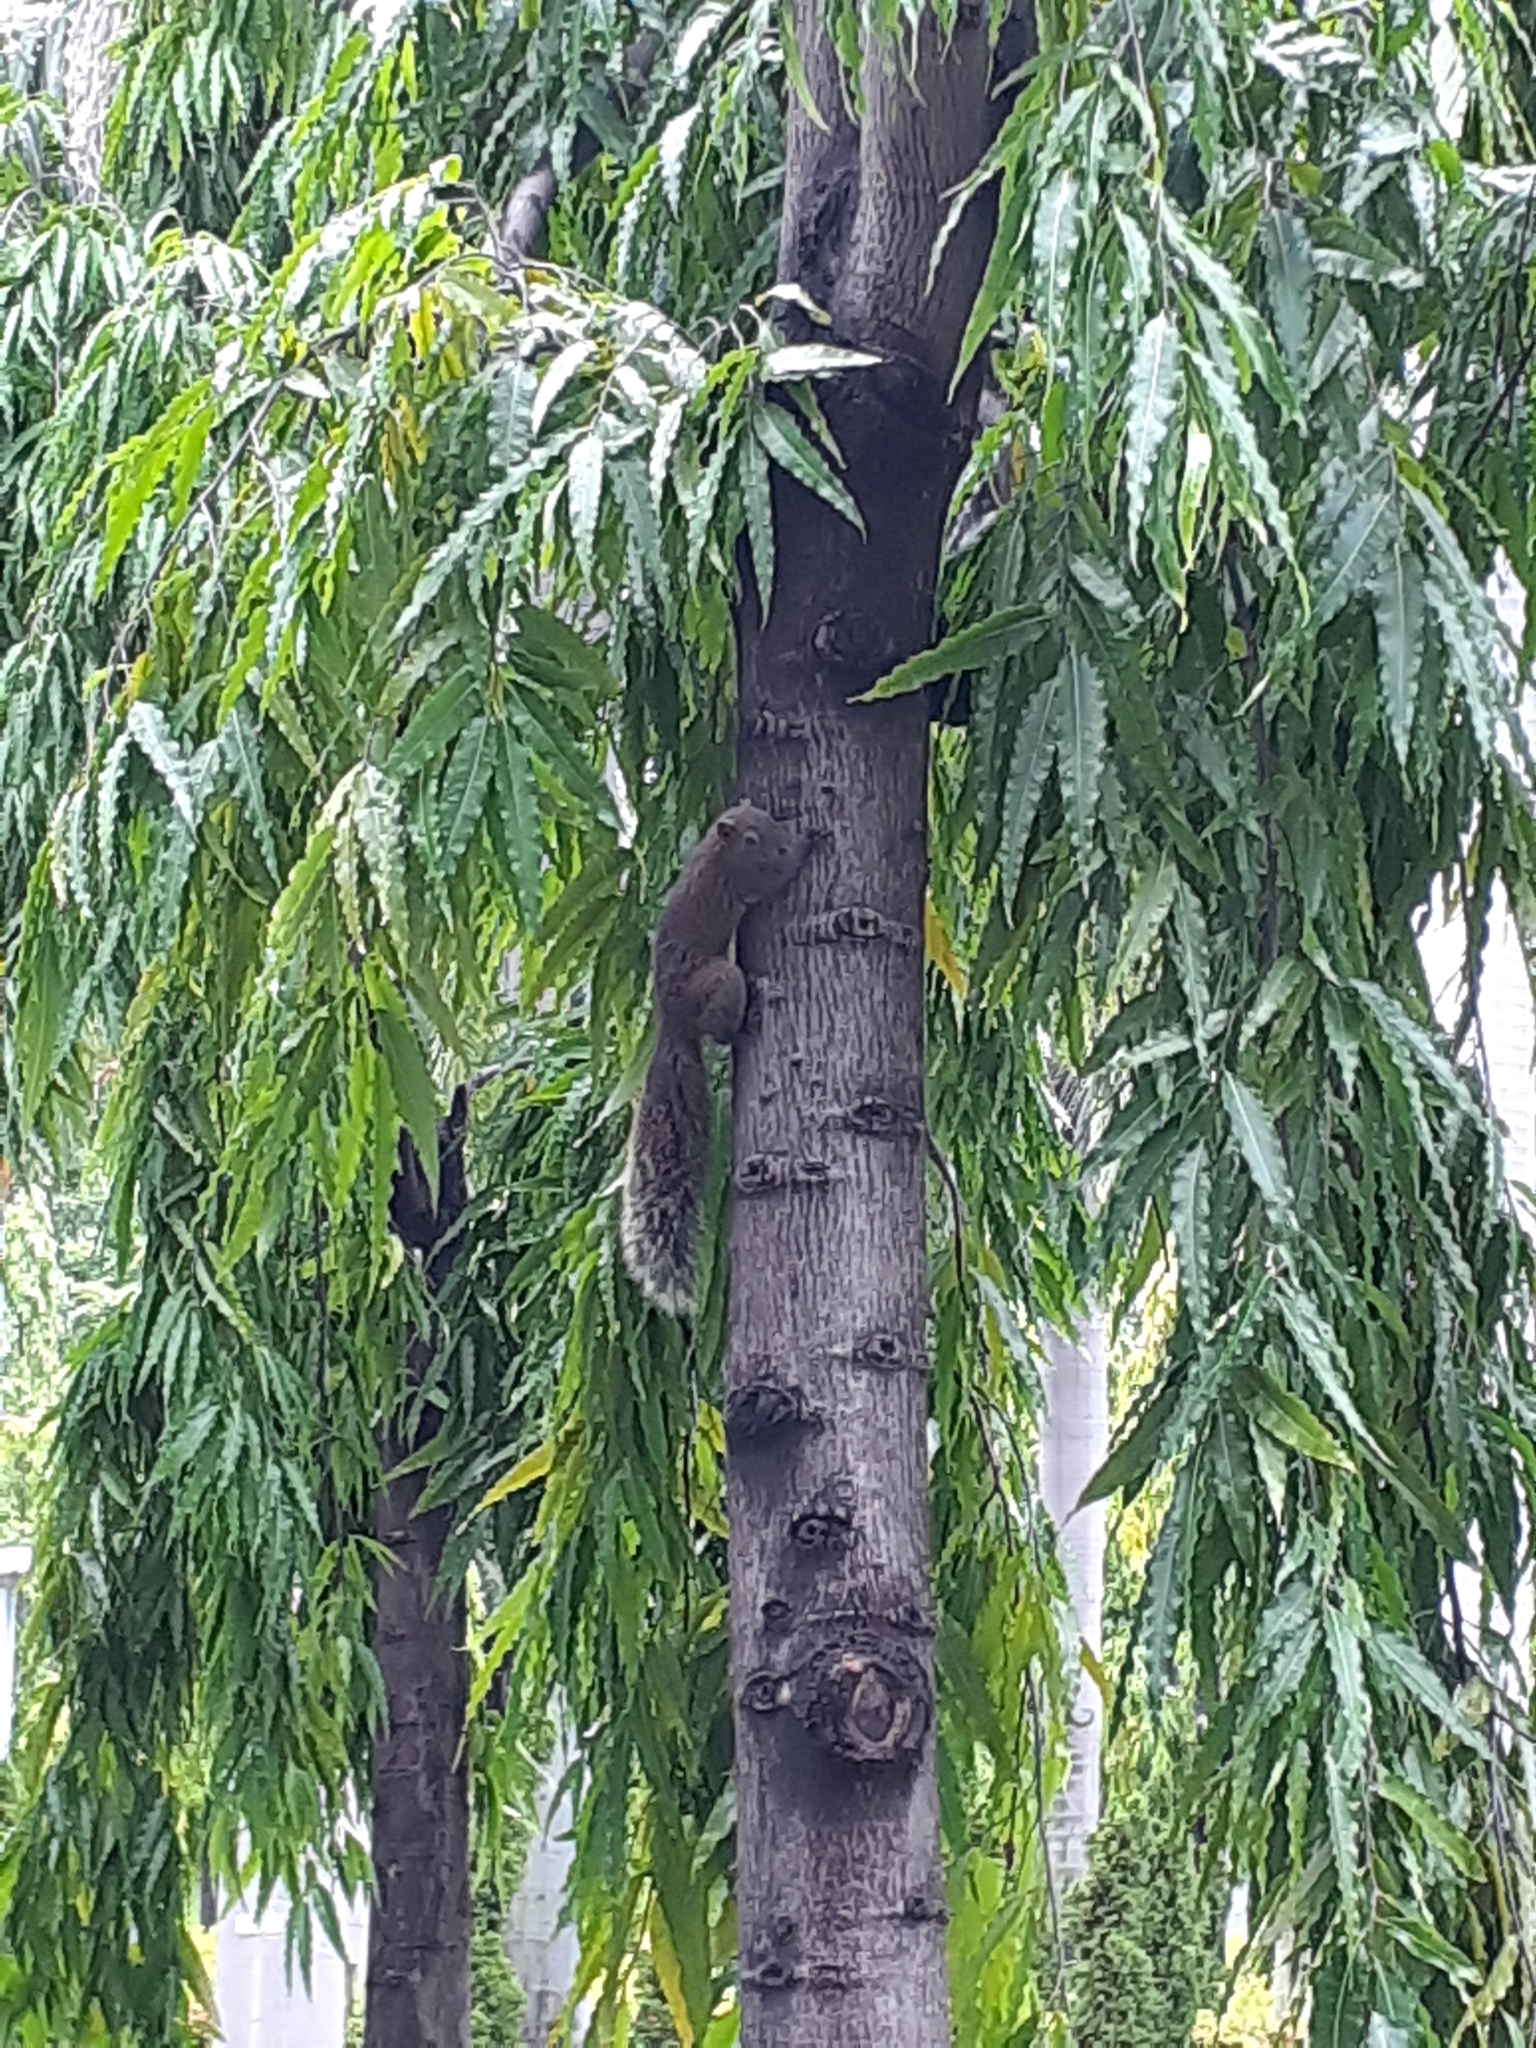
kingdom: Animalia
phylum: Chordata
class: Mammalia
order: Rodentia
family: Sciuridae
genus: Callosciurus
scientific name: Callosciurus erythraeus
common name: Pallas's squirrel
